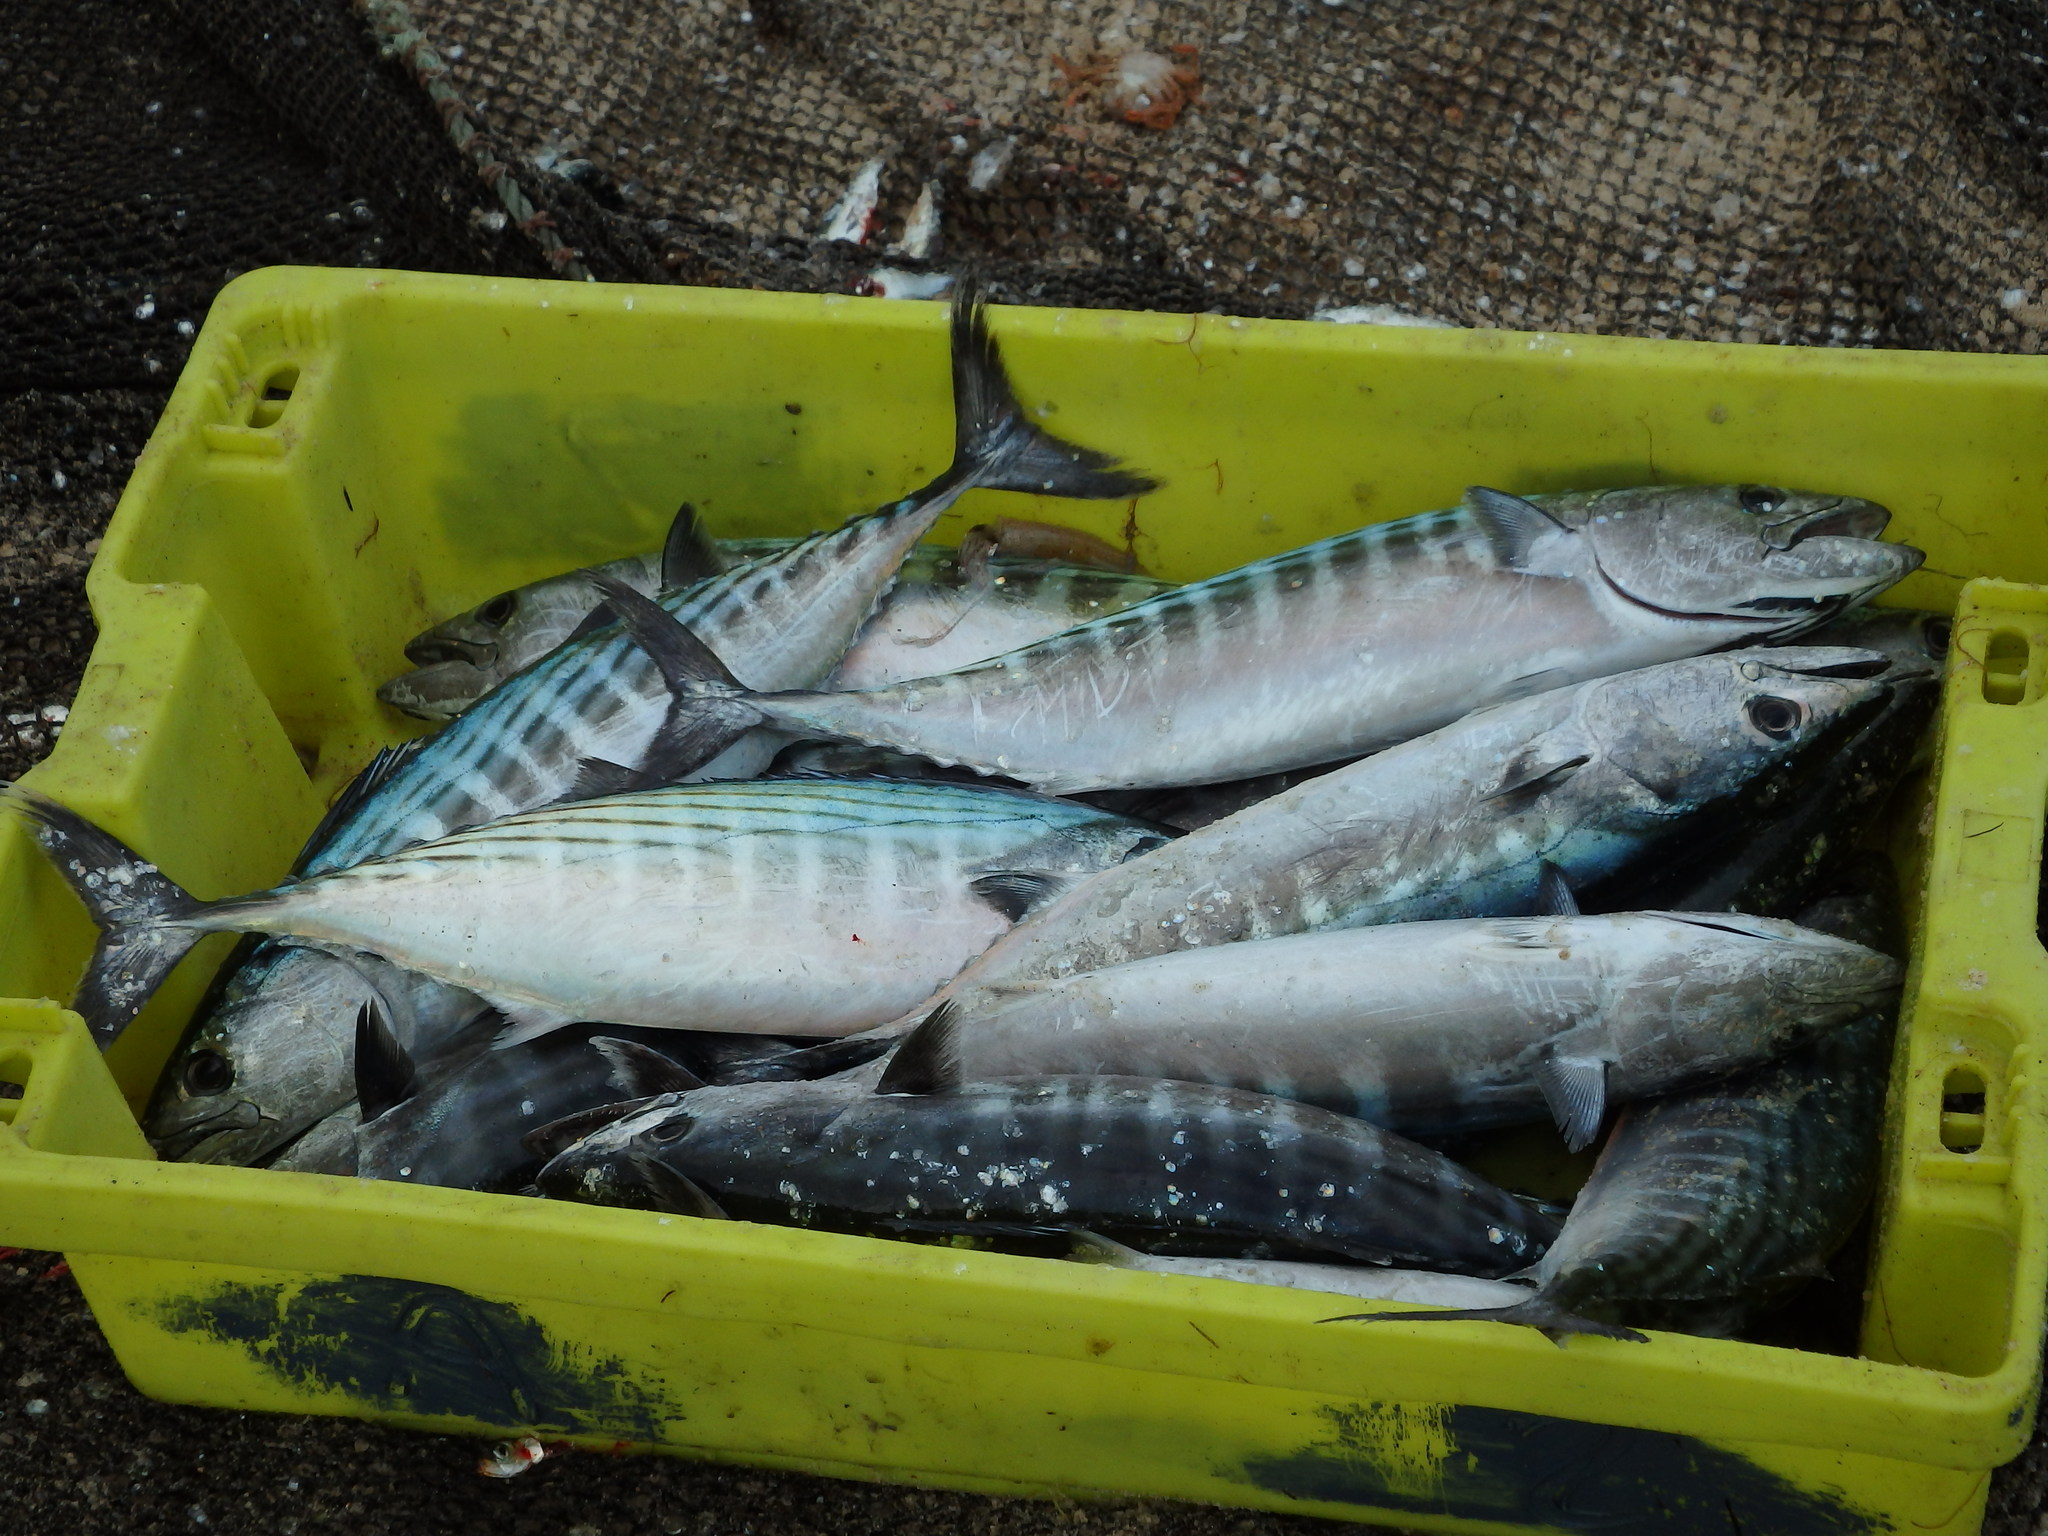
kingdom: Animalia
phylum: Chordata
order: Perciformes
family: Scombridae
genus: Sarda
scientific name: Sarda sarda
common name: Atlantic bonito
